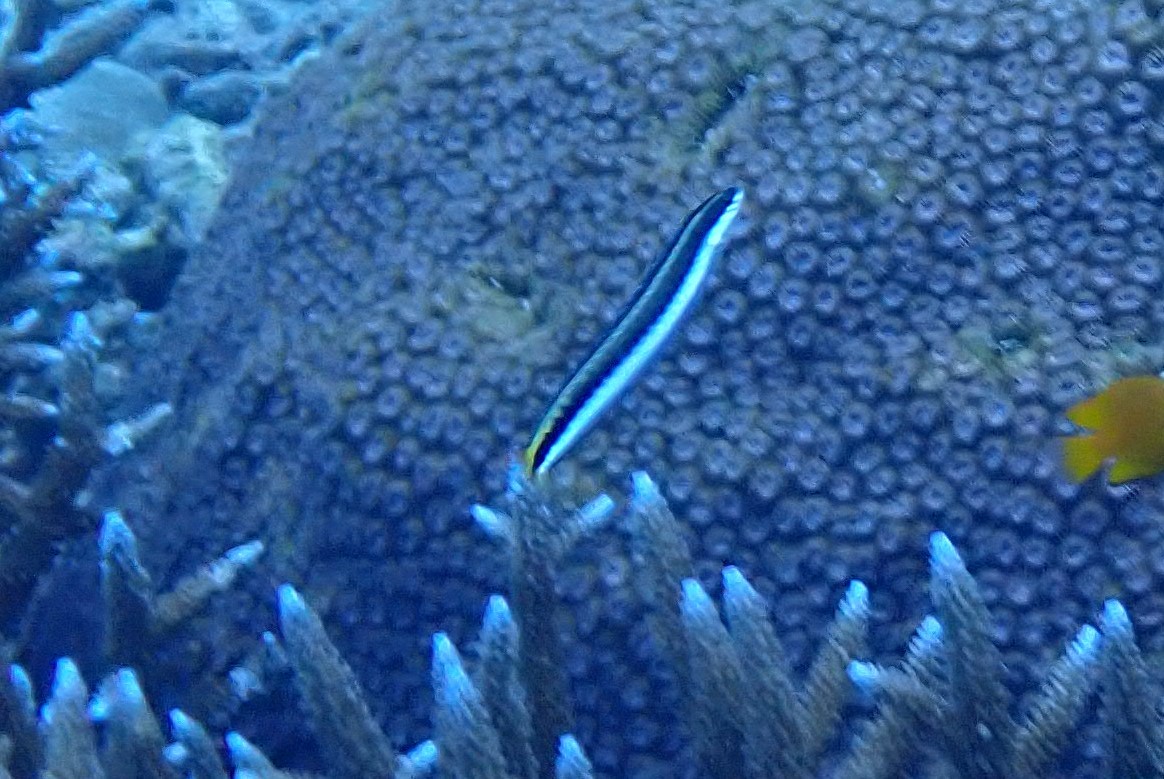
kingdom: Animalia
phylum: Chordata
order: Perciformes
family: Blenniidae
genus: Plagiotremus
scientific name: Plagiotremus tapeinosoma
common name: Hit and run blenny
